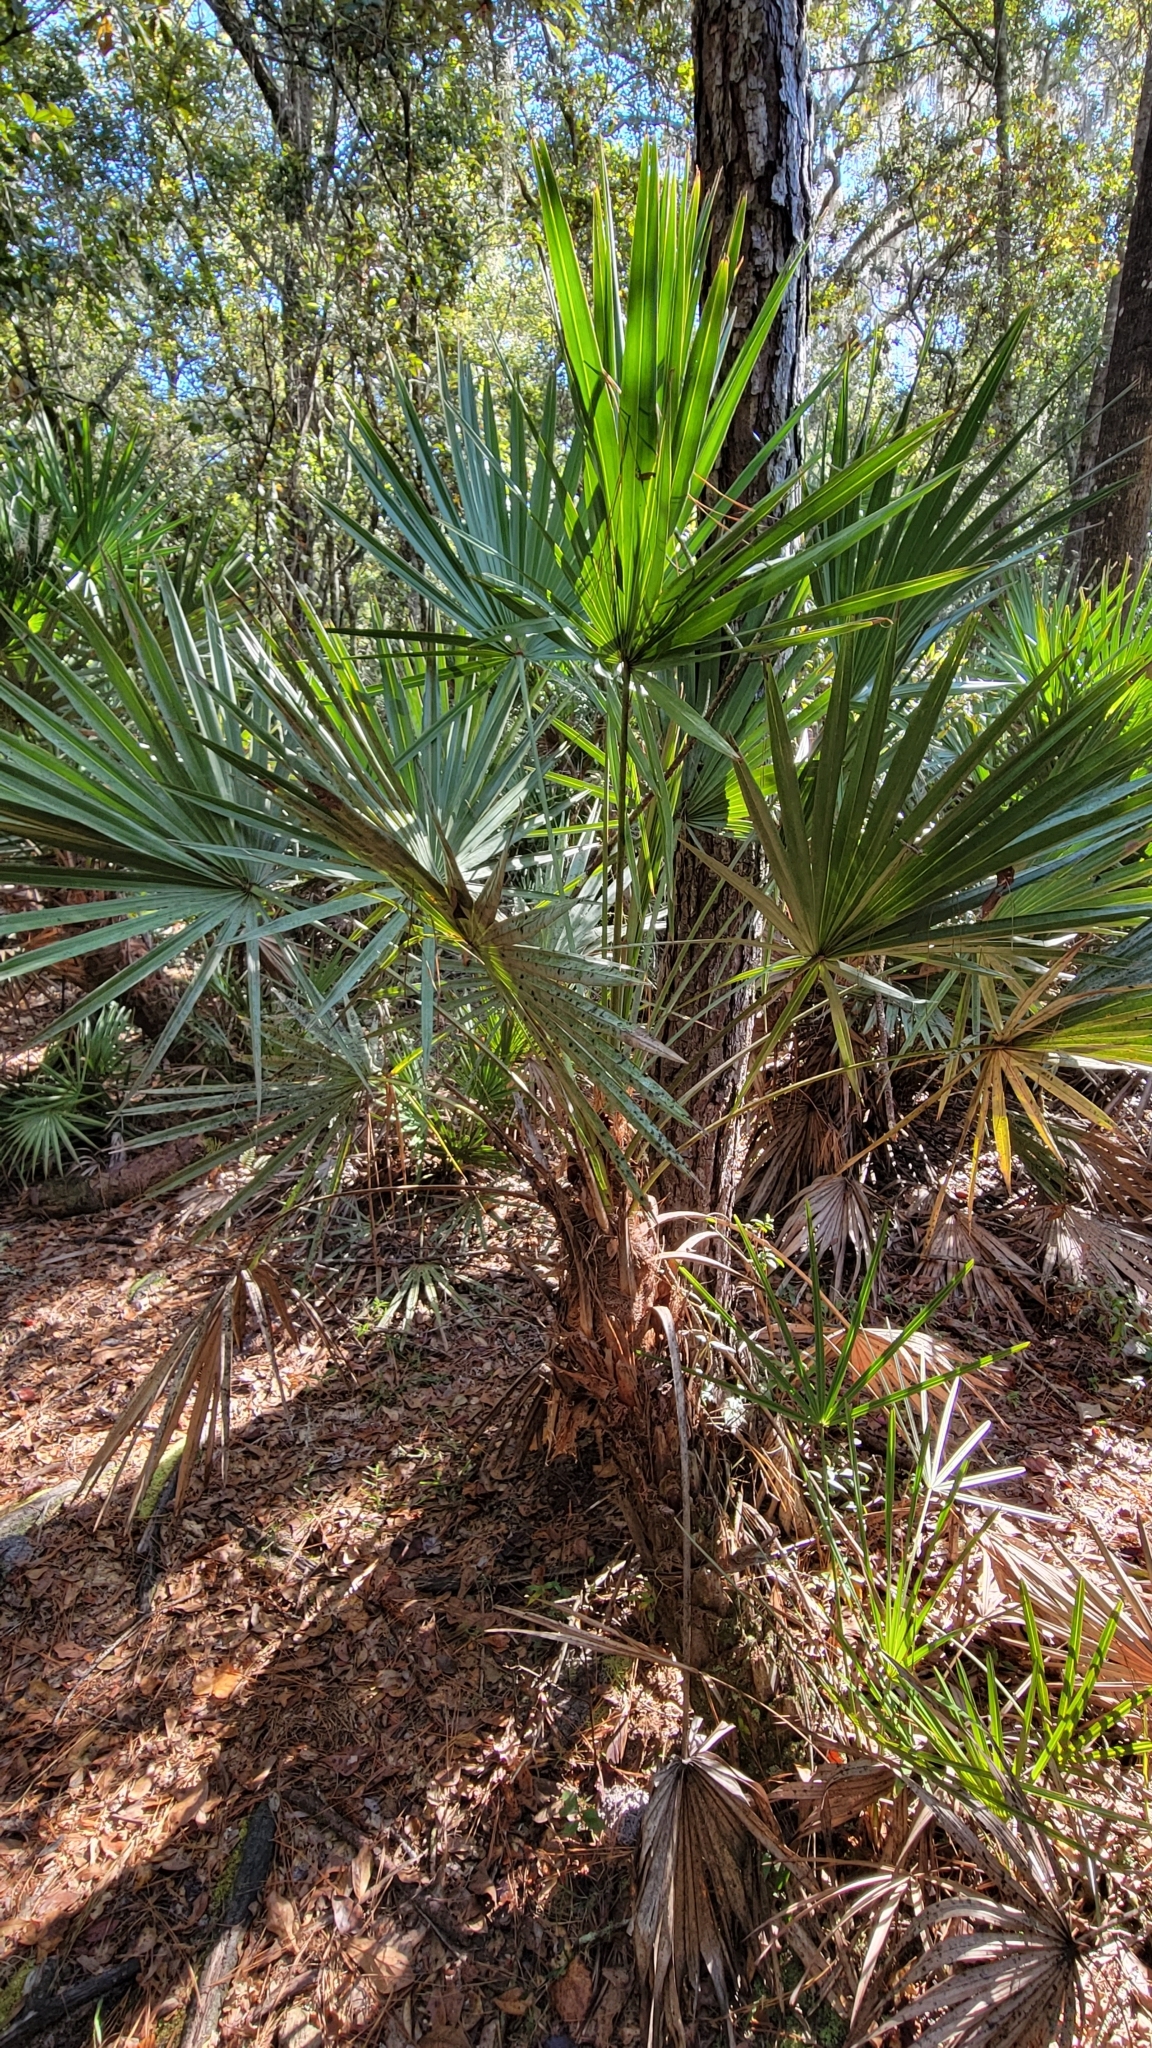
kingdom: Plantae
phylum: Tracheophyta
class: Liliopsida
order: Arecales
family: Arecaceae
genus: Serenoa
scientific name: Serenoa repens
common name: Saw-palmetto
